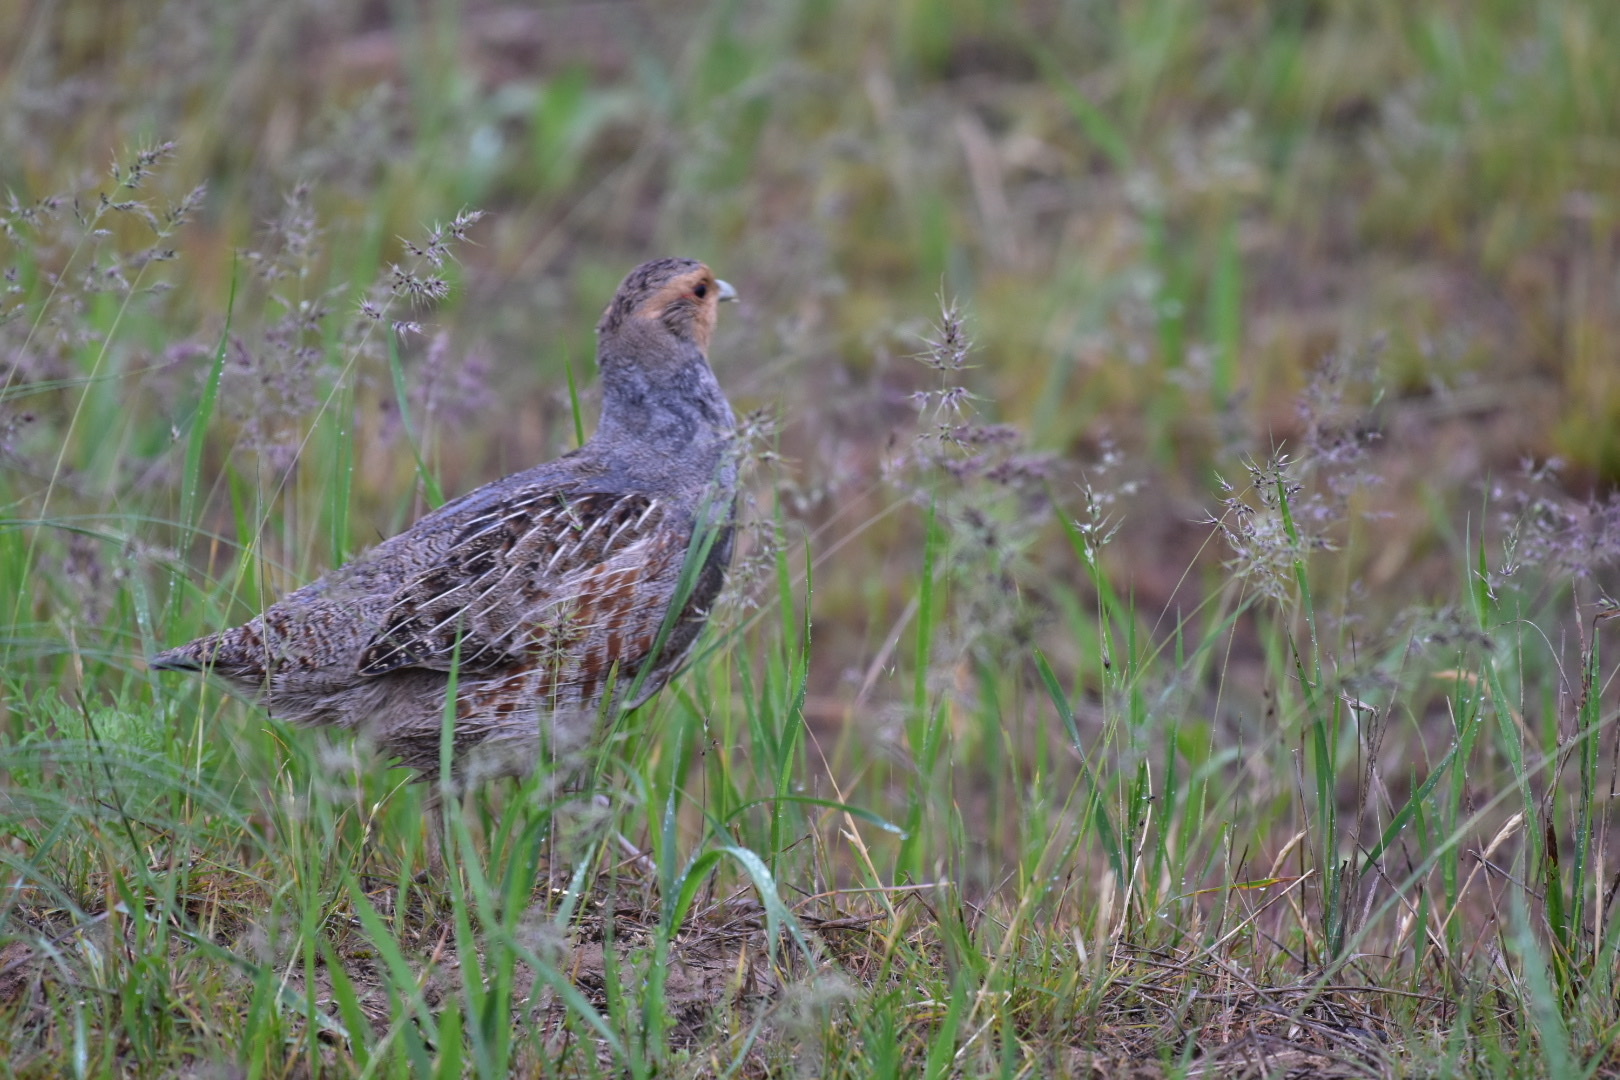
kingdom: Animalia
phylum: Chordata
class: Aves
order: Galliformes
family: Phasianidae
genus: Perdix
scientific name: Perdix perdix
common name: Grey partridge
